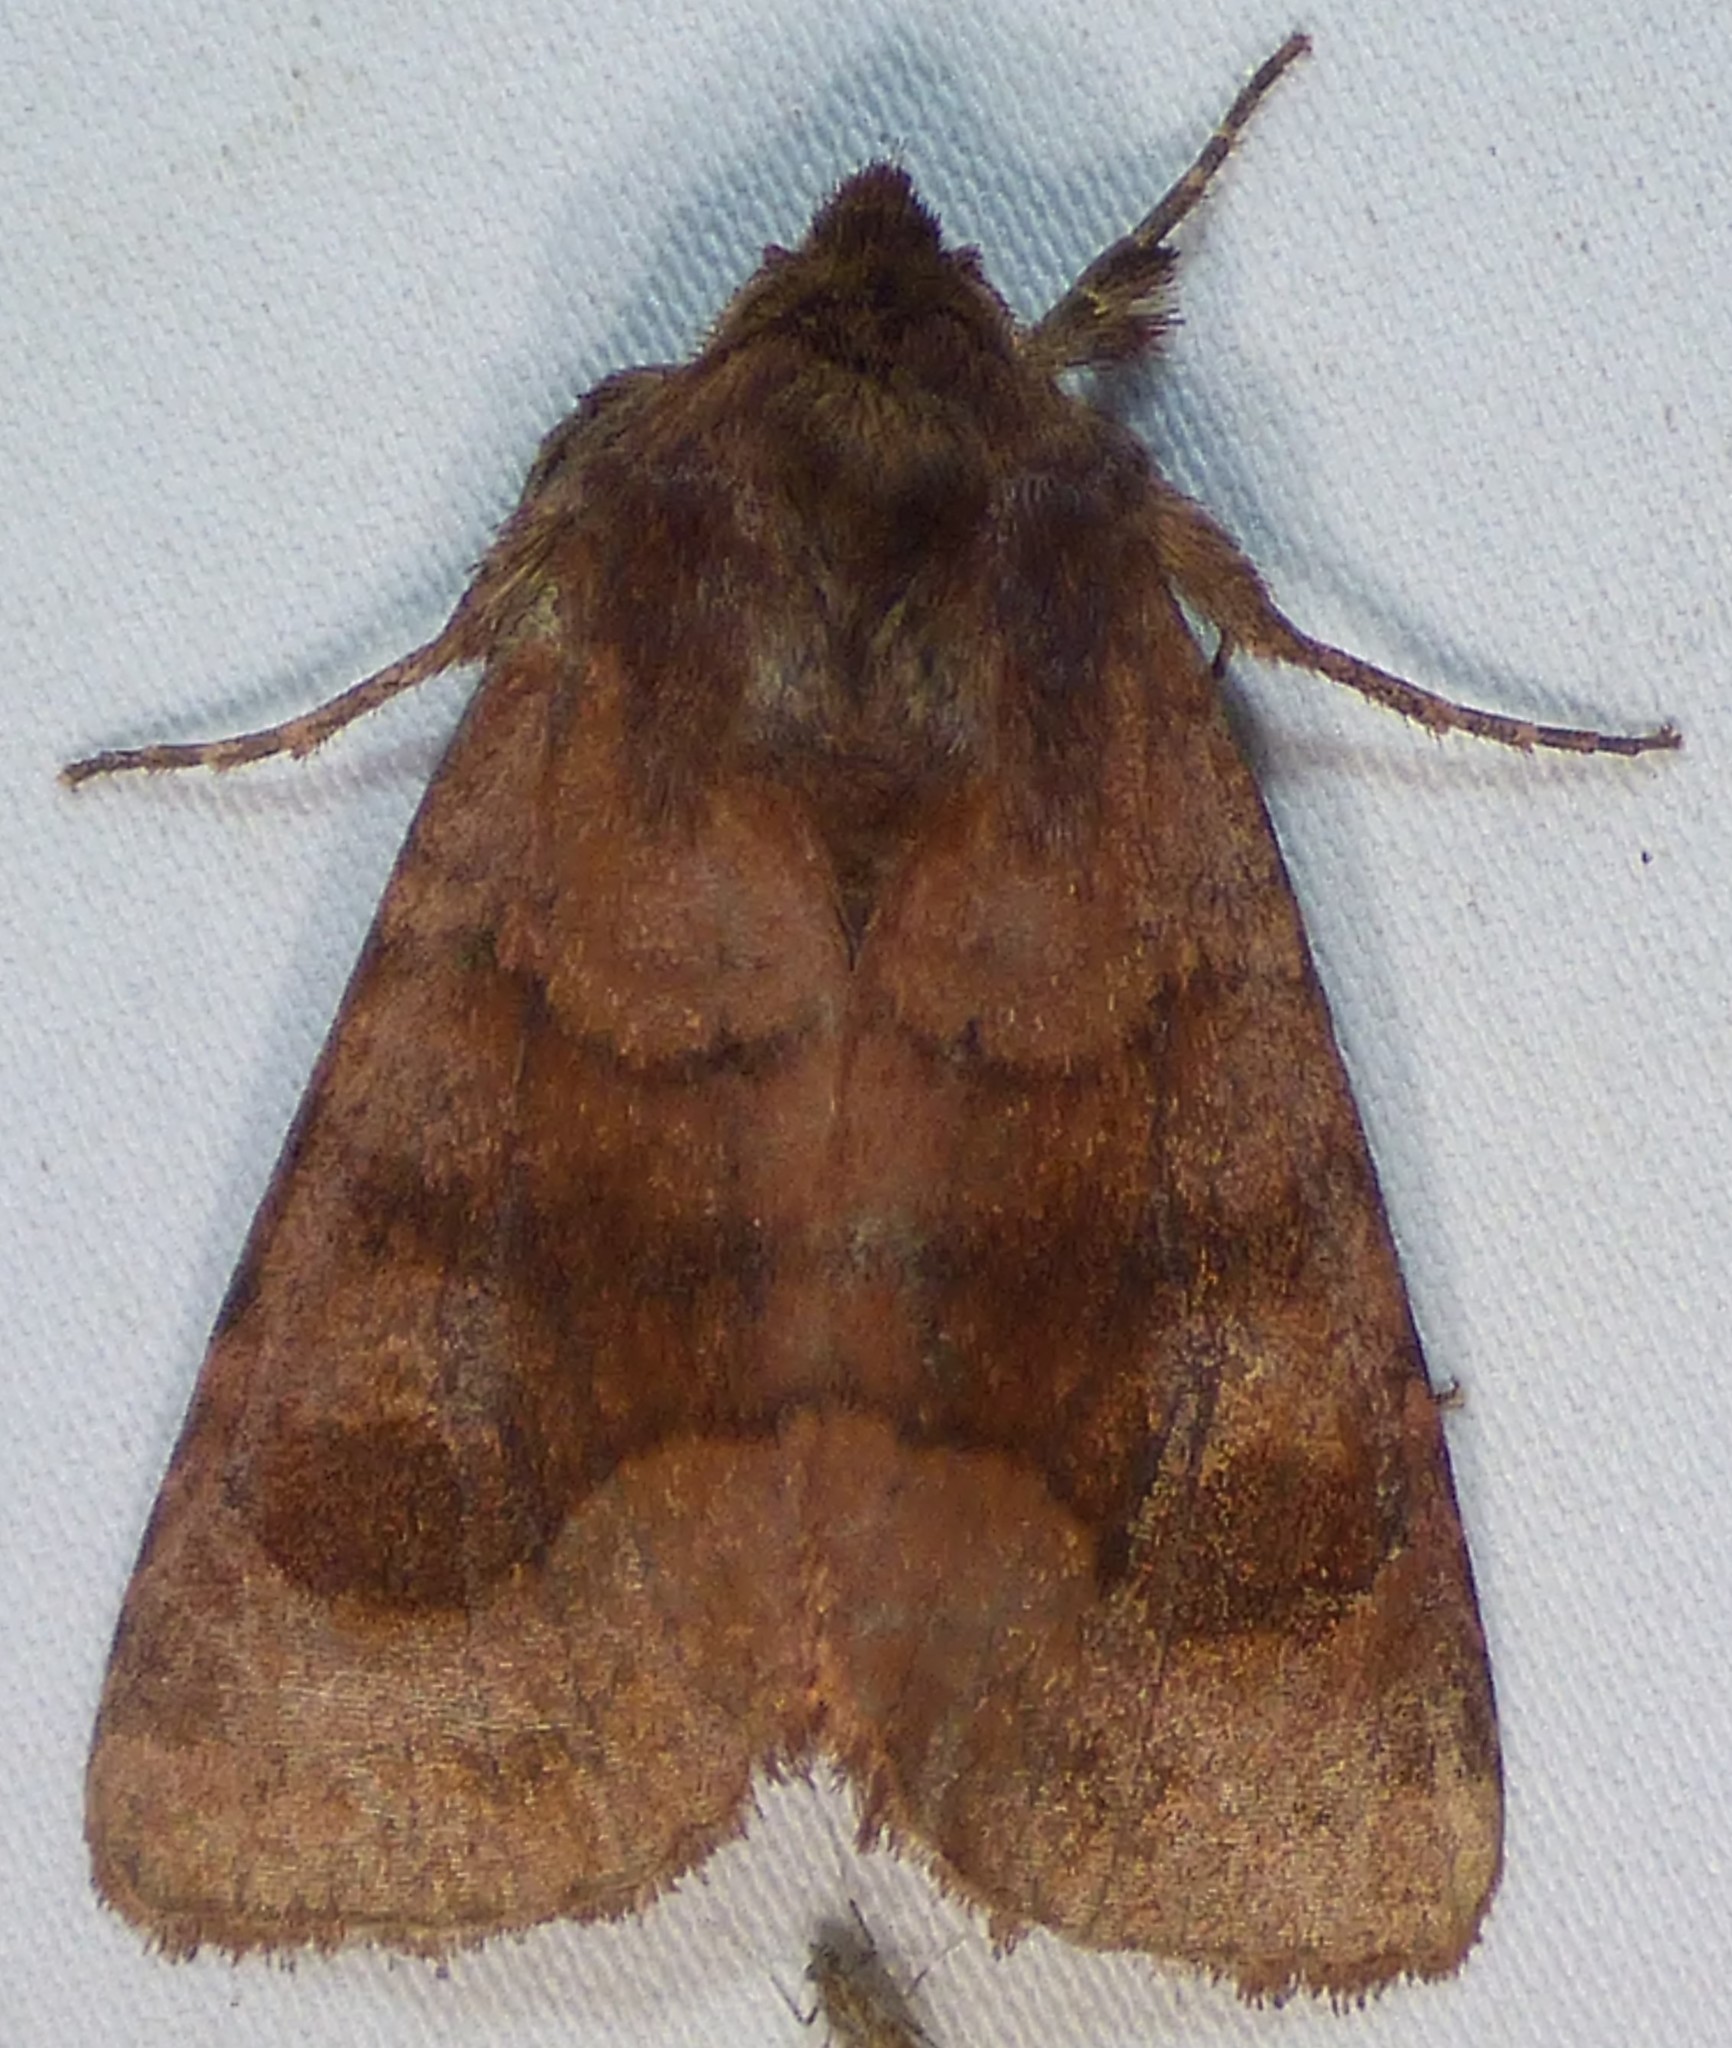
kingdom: Animalia
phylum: Arthropoda
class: Insecta
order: Lepidoptera
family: Noctuidae
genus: Nephelodes
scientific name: Nephelodes minians
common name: Bronzed cutworm
